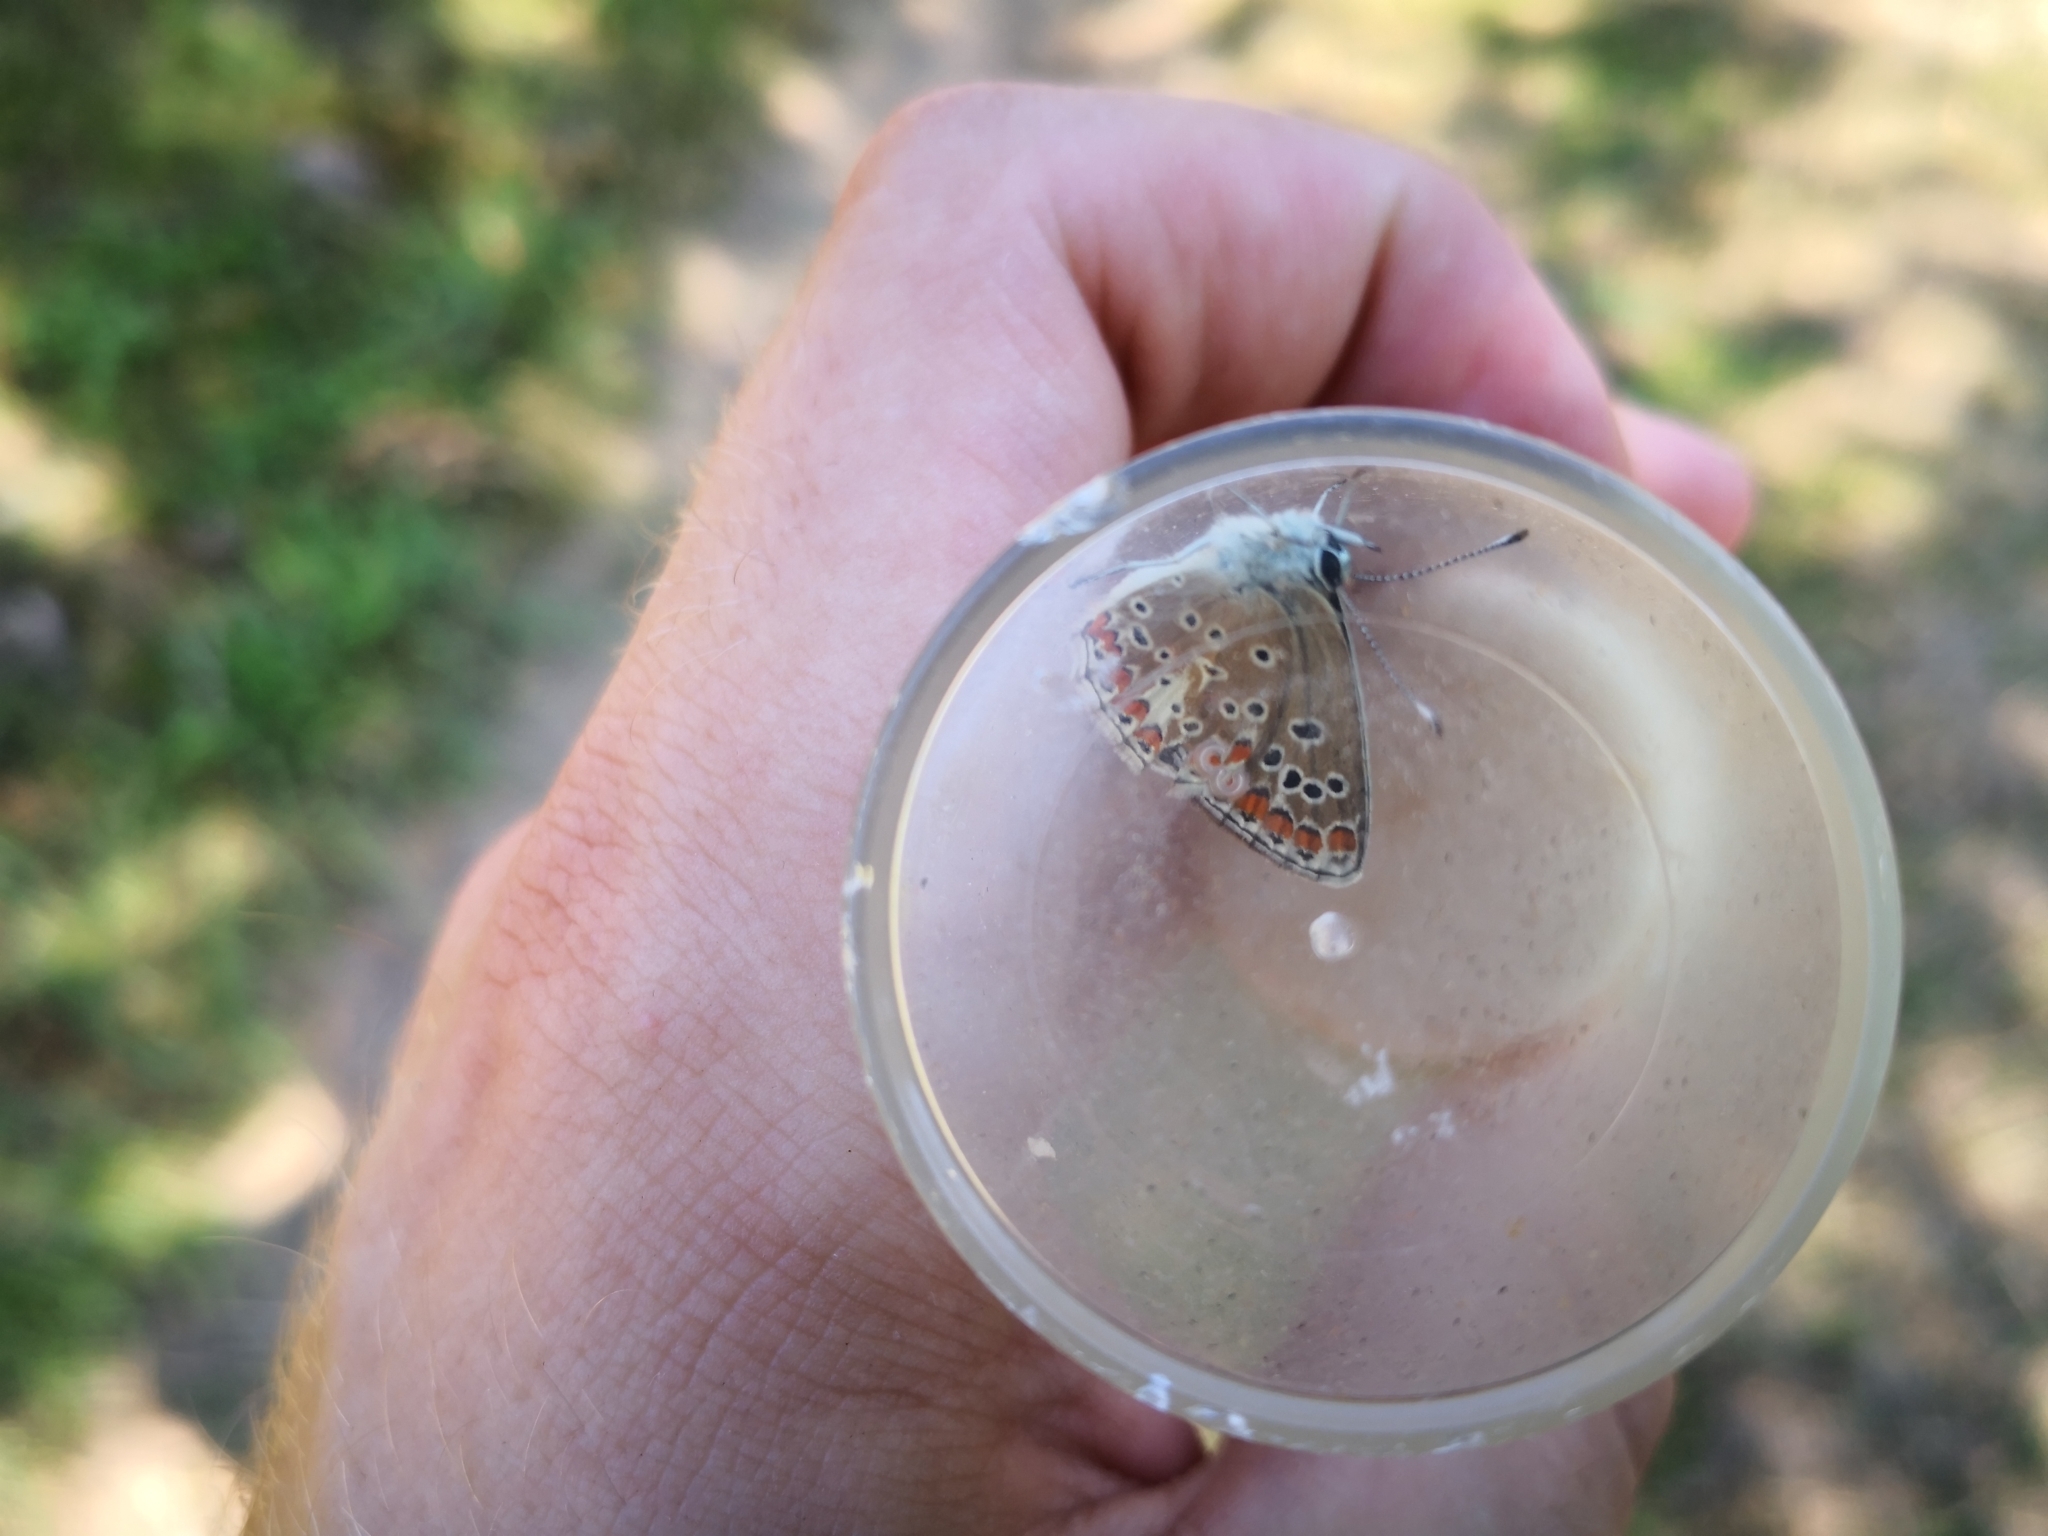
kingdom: Animalia
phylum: Arthropoda
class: Insecta
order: Lepidoptera
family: Lycaenidae
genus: Aricia
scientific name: Aricia agestis
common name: Brown argus
